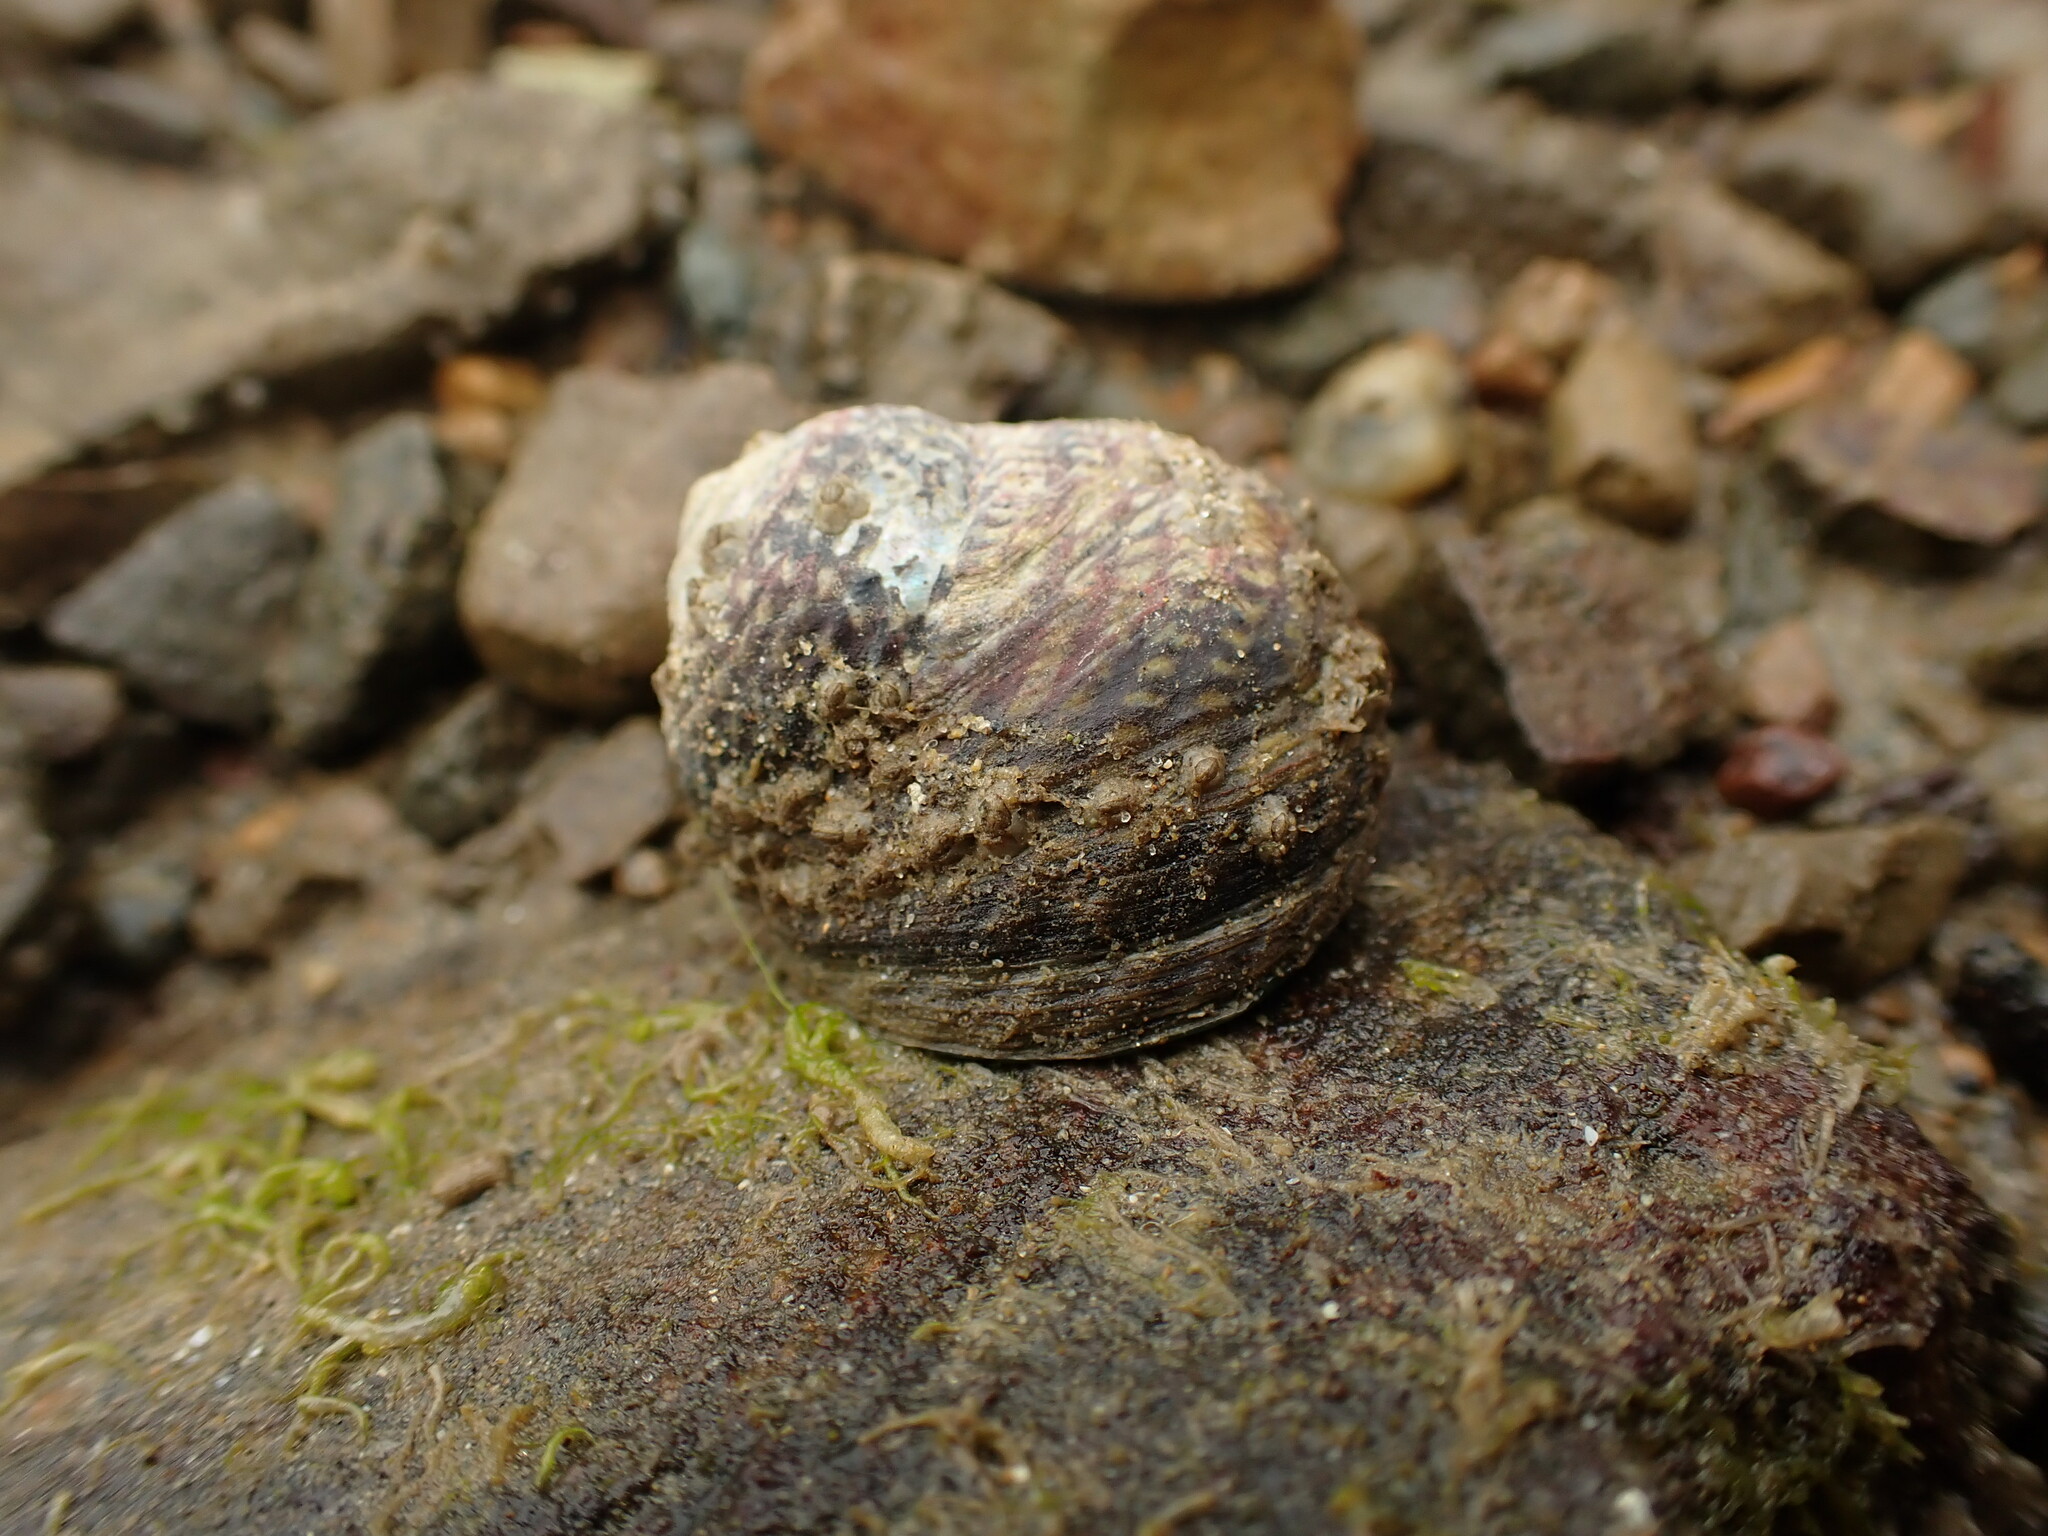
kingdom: Animalia
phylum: Mollusca
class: Gastropoda
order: Trochida
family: Trochidae
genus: Diloma
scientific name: Diloma subrostratum
